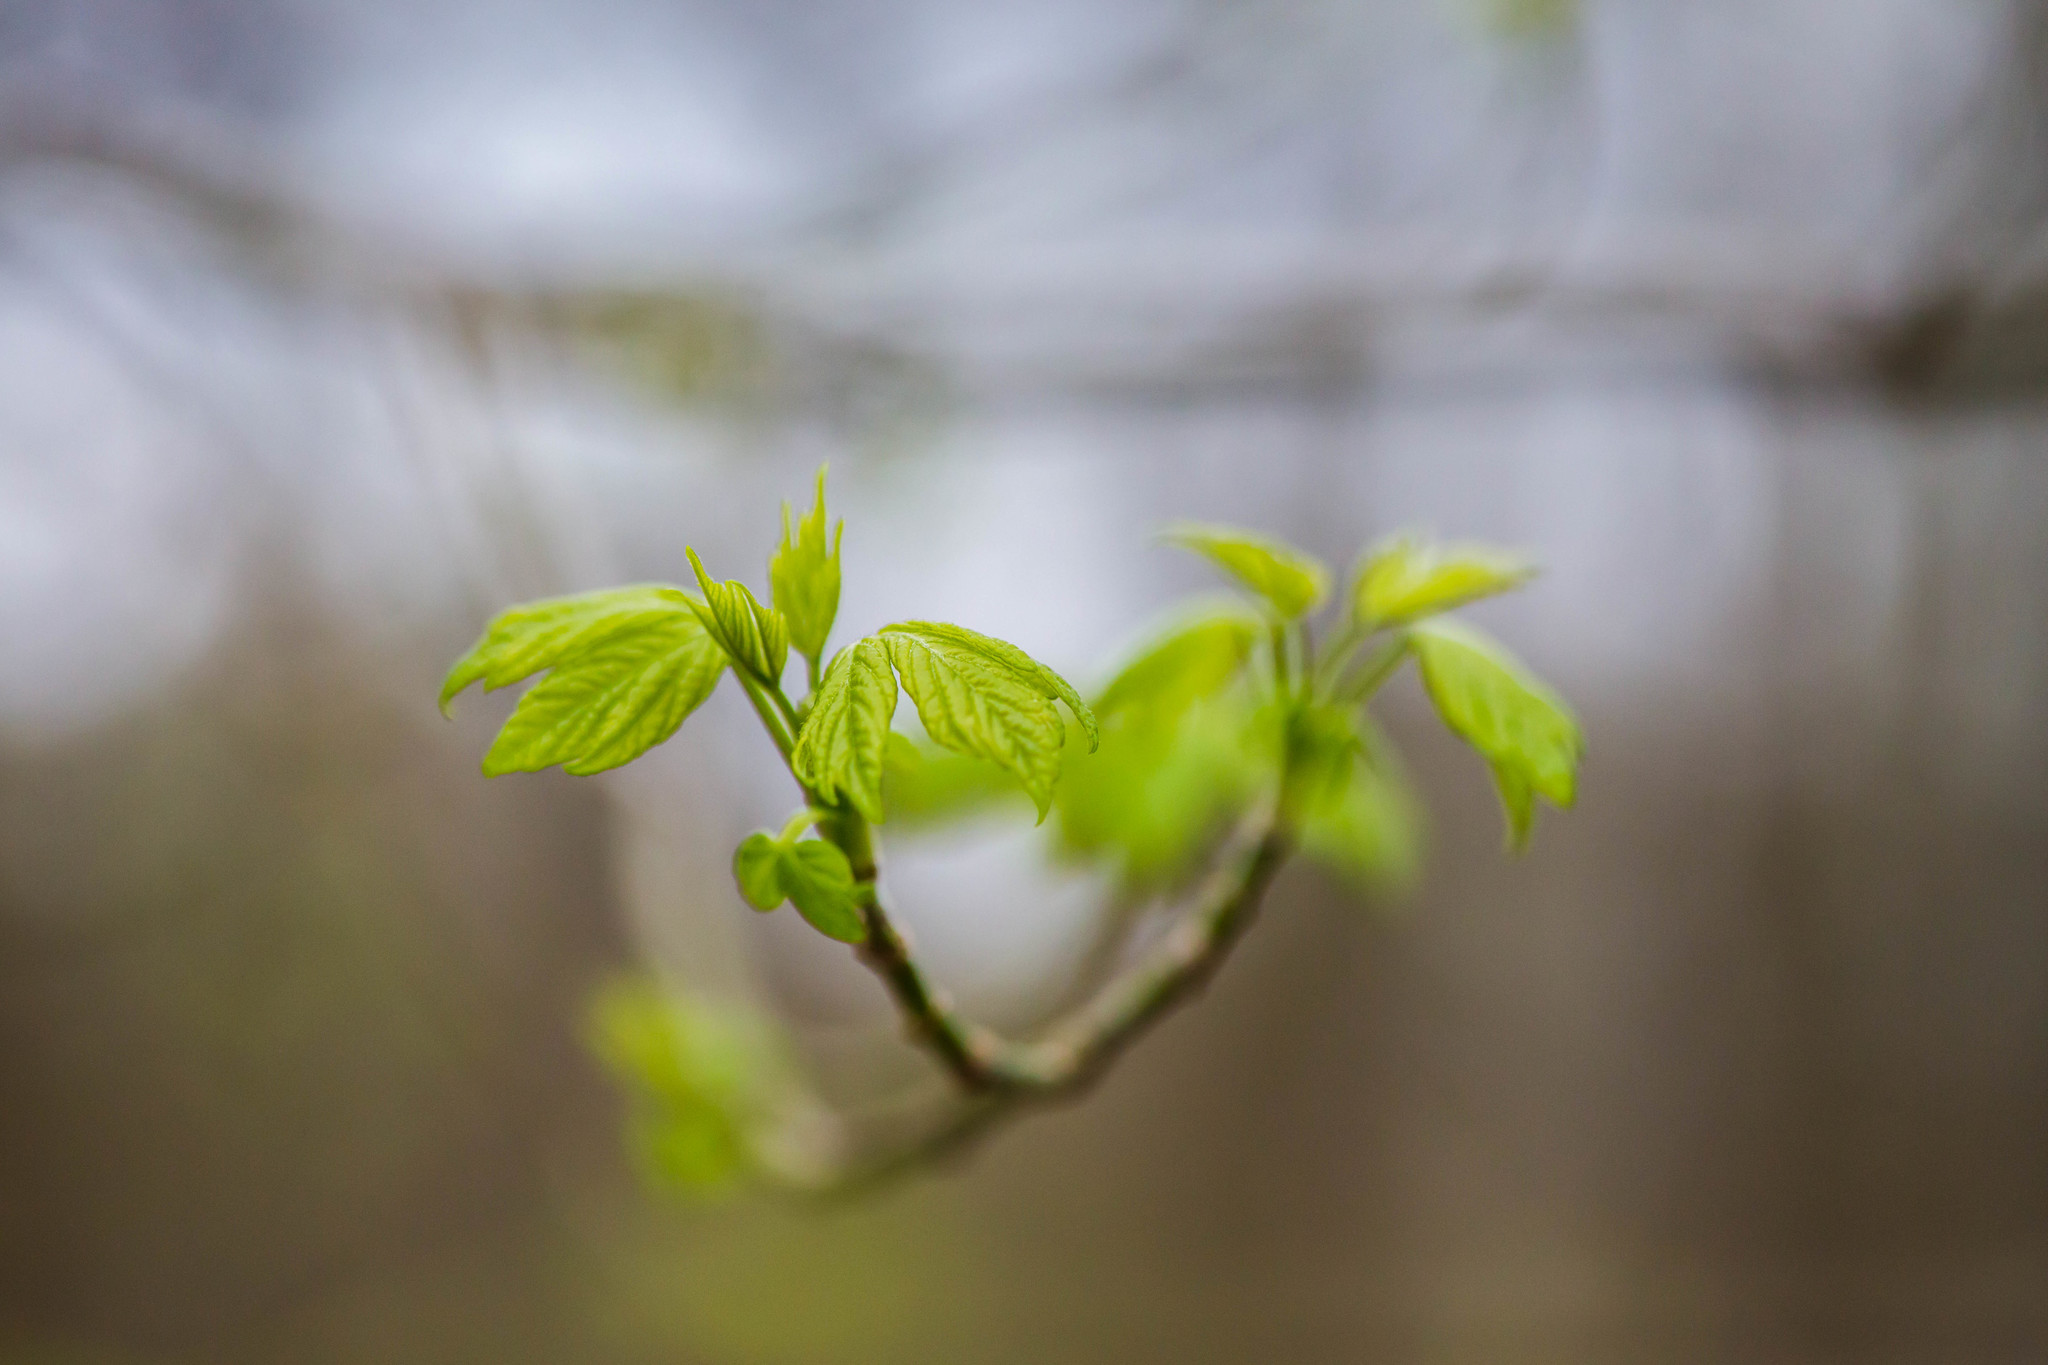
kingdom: Plantae
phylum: Tracheophyta
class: Magnoliopsida
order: Sapindales
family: Sapindaceae
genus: Acer
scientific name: Acer negundo
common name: Ashleaf maple
